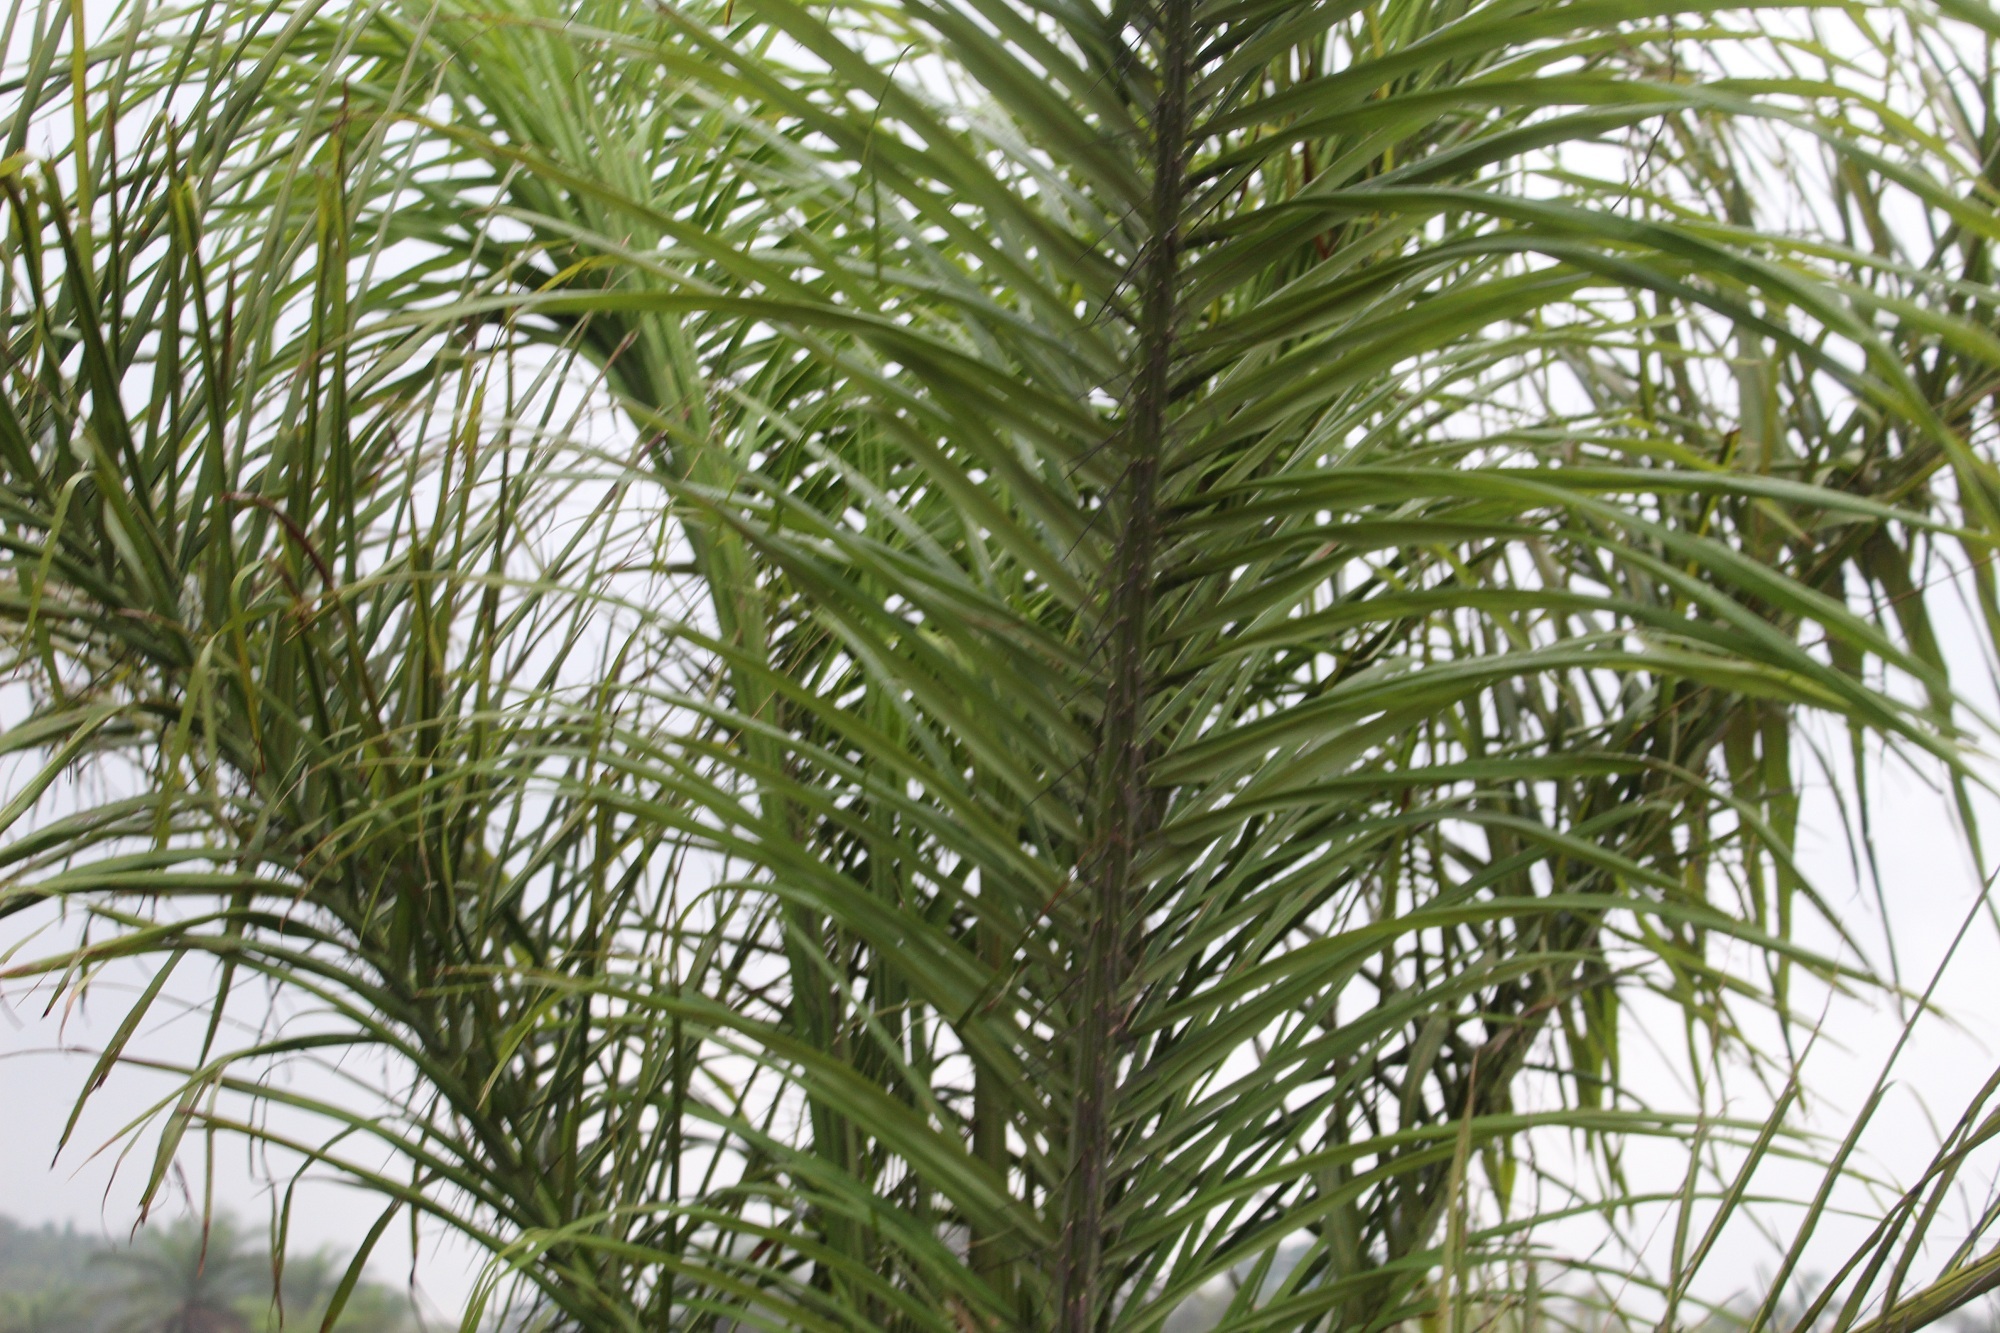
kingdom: Plantae
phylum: Tracheophyta
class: Liliopsida
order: Arecales
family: Arecaceae
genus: Astrocaryum
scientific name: Astrocaryum chambira
